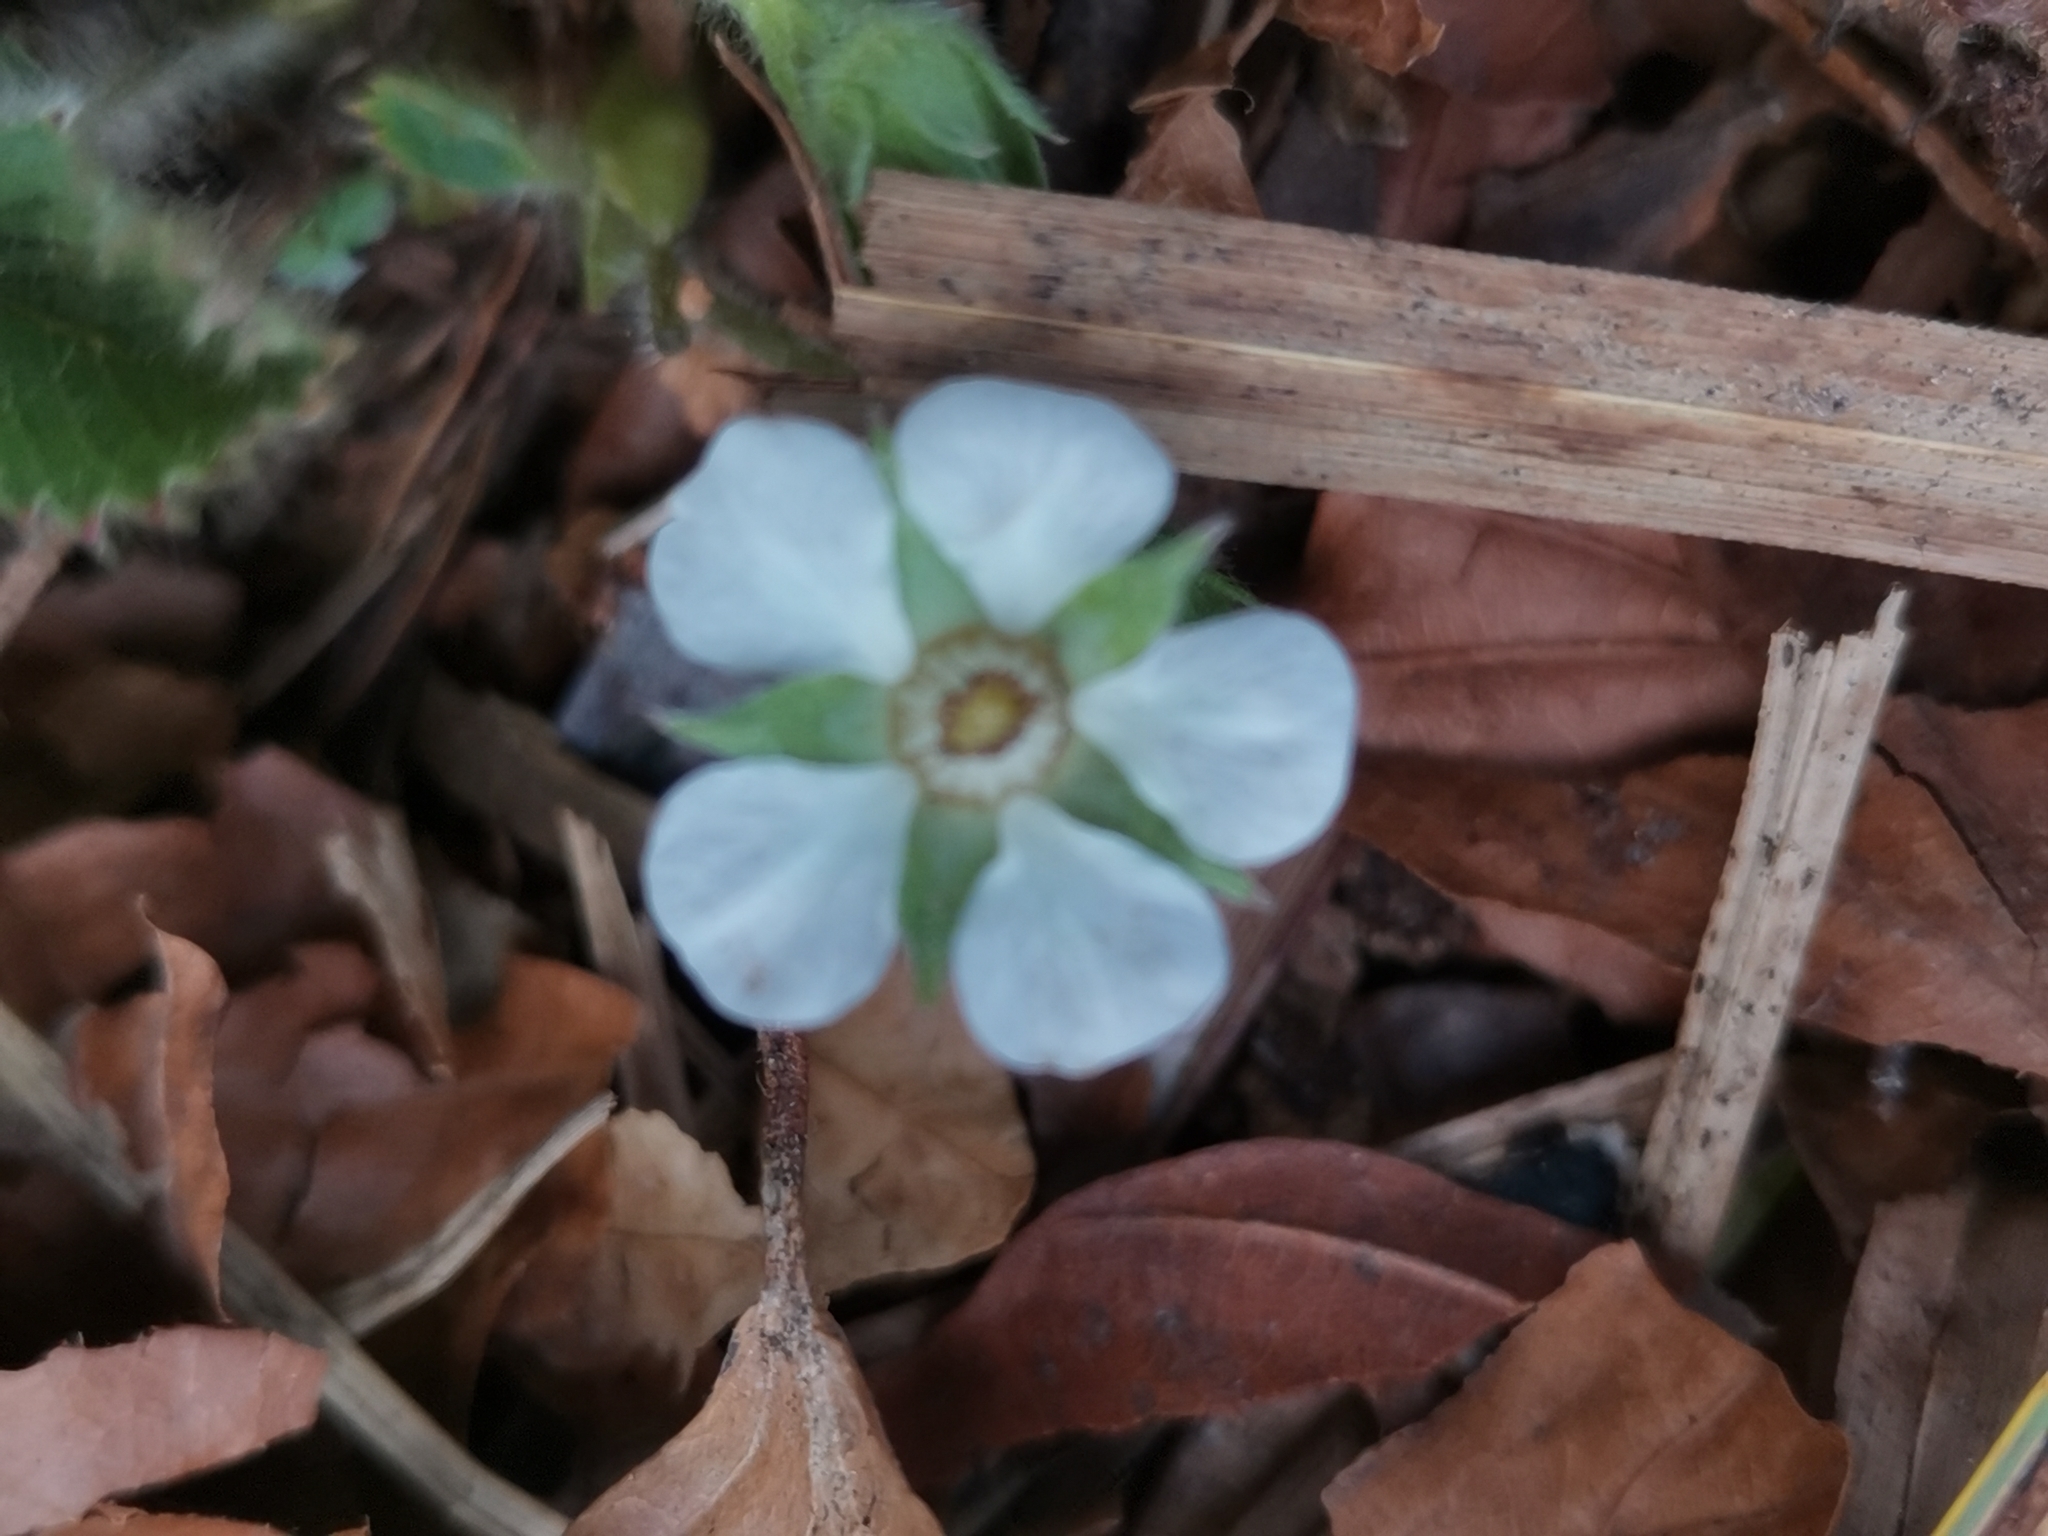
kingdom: Plantae
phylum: Tracheophyta
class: Magnoliopsida
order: Rosales
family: Rosaceae
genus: Potentilla
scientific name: Potentilla carniolica
